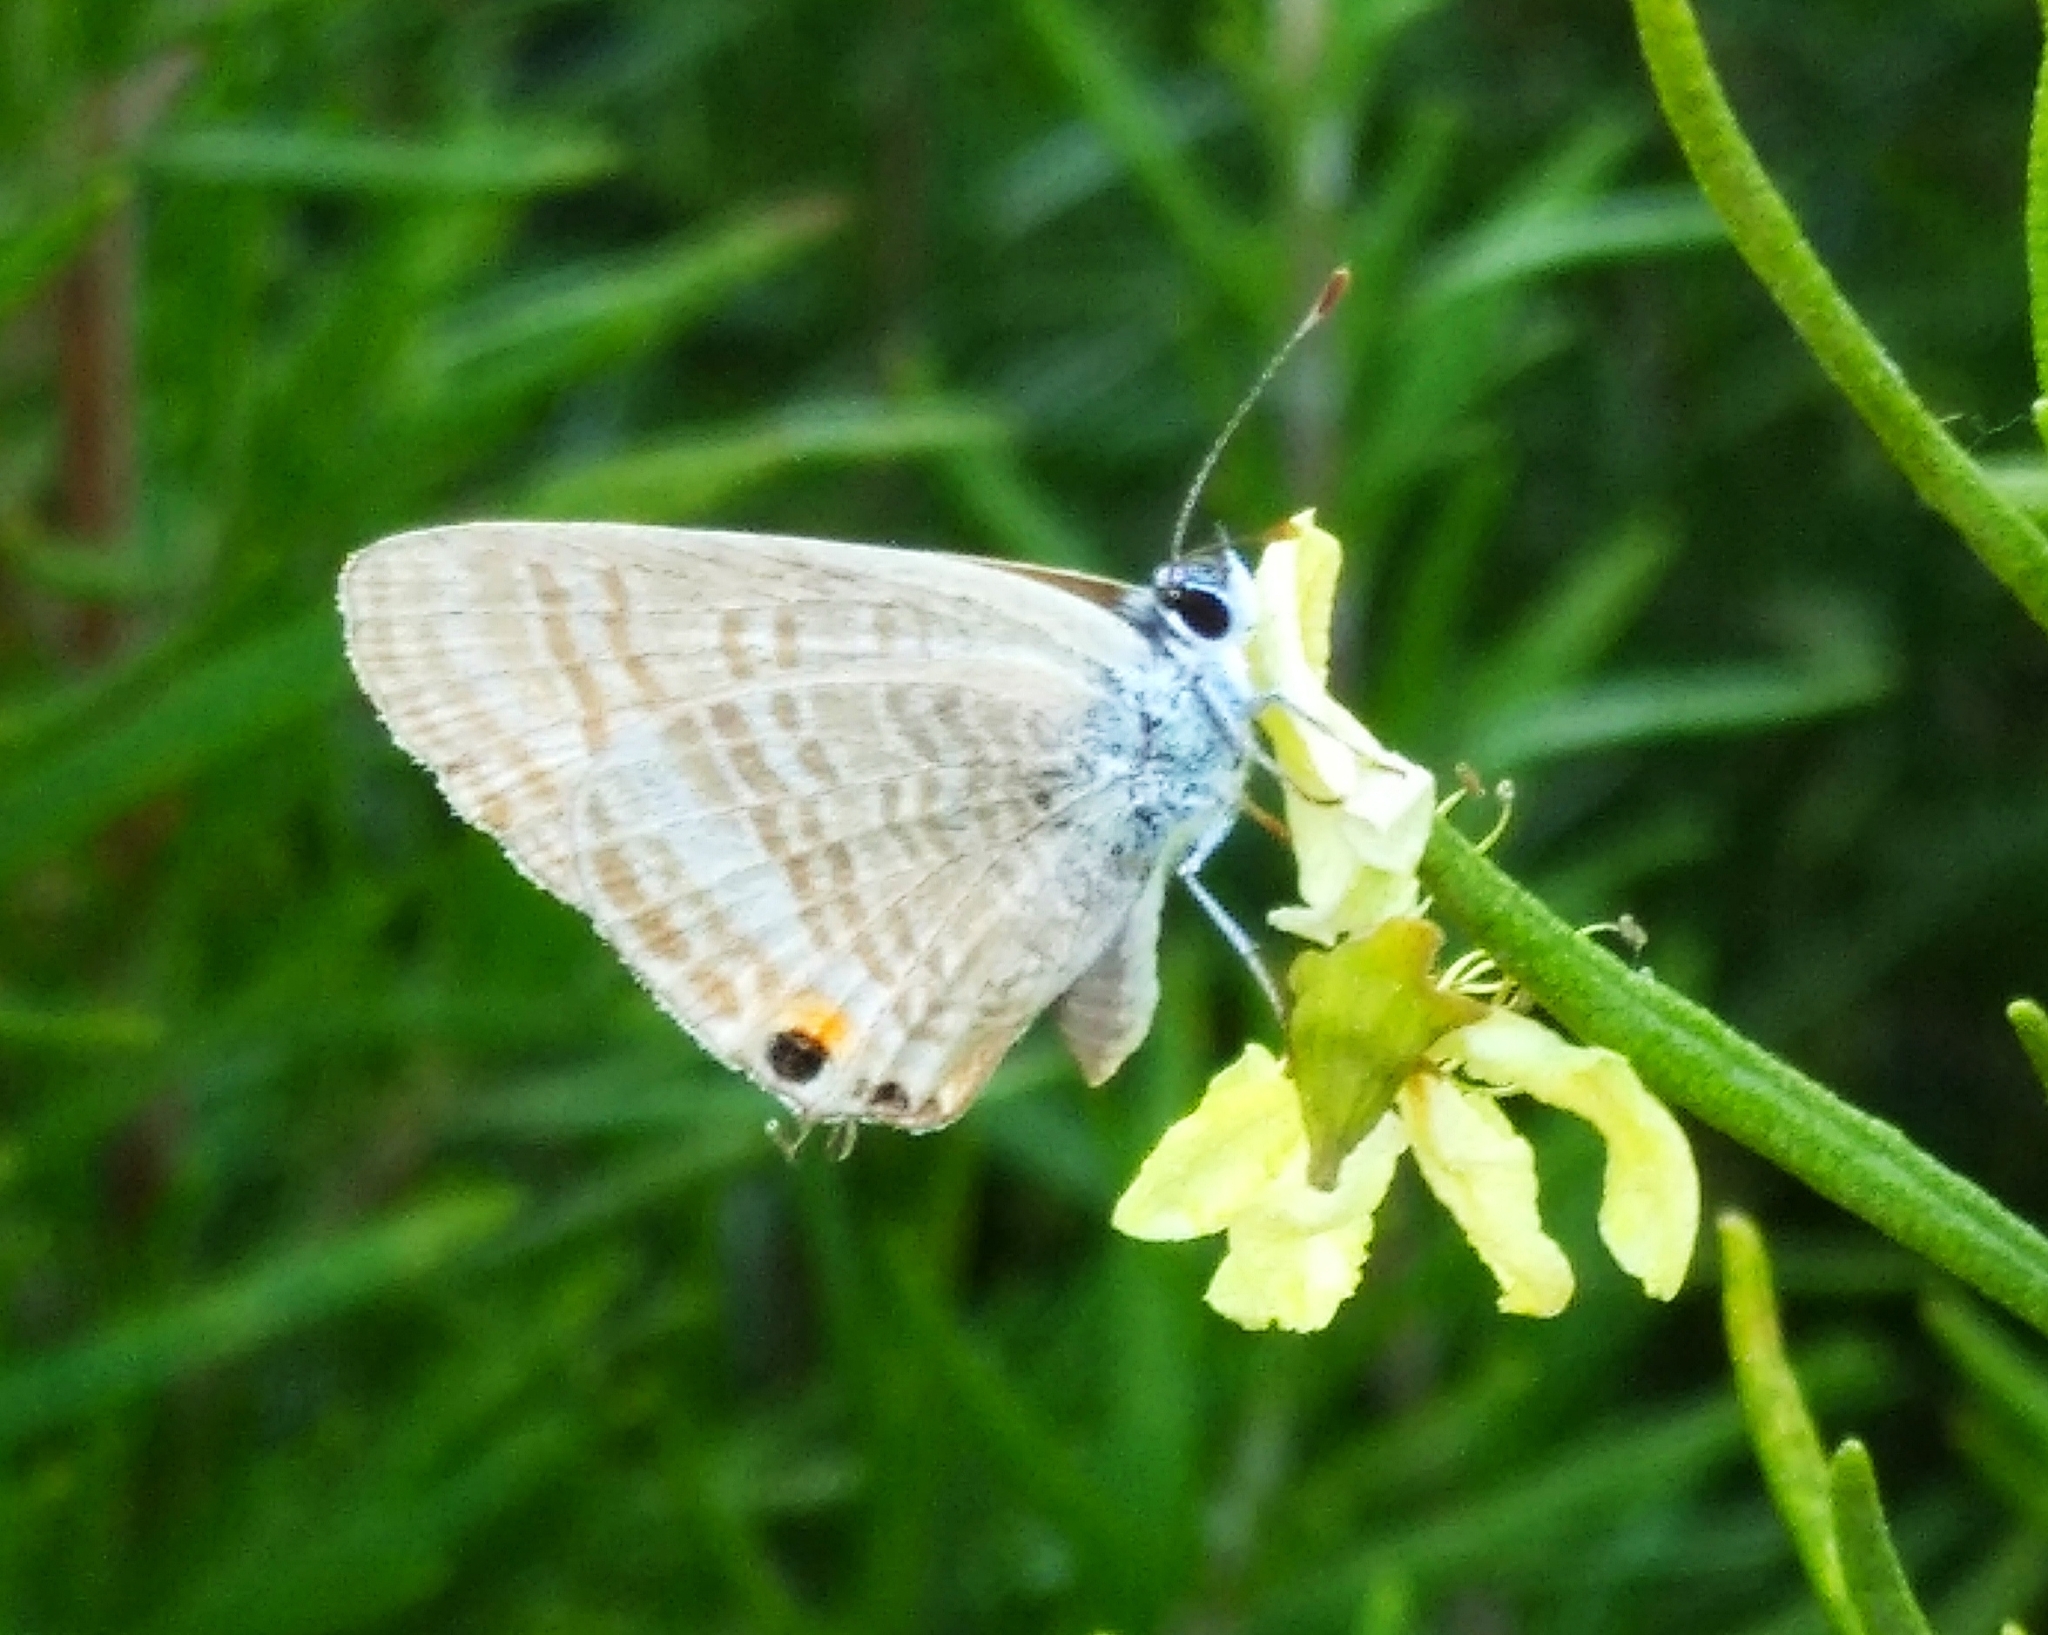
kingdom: Animalia
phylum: Arthropoda
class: Insecta
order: Lepidoptera
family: Lycaenidae
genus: Lampides
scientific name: Lampides boeticus
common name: Long-tailed blue
